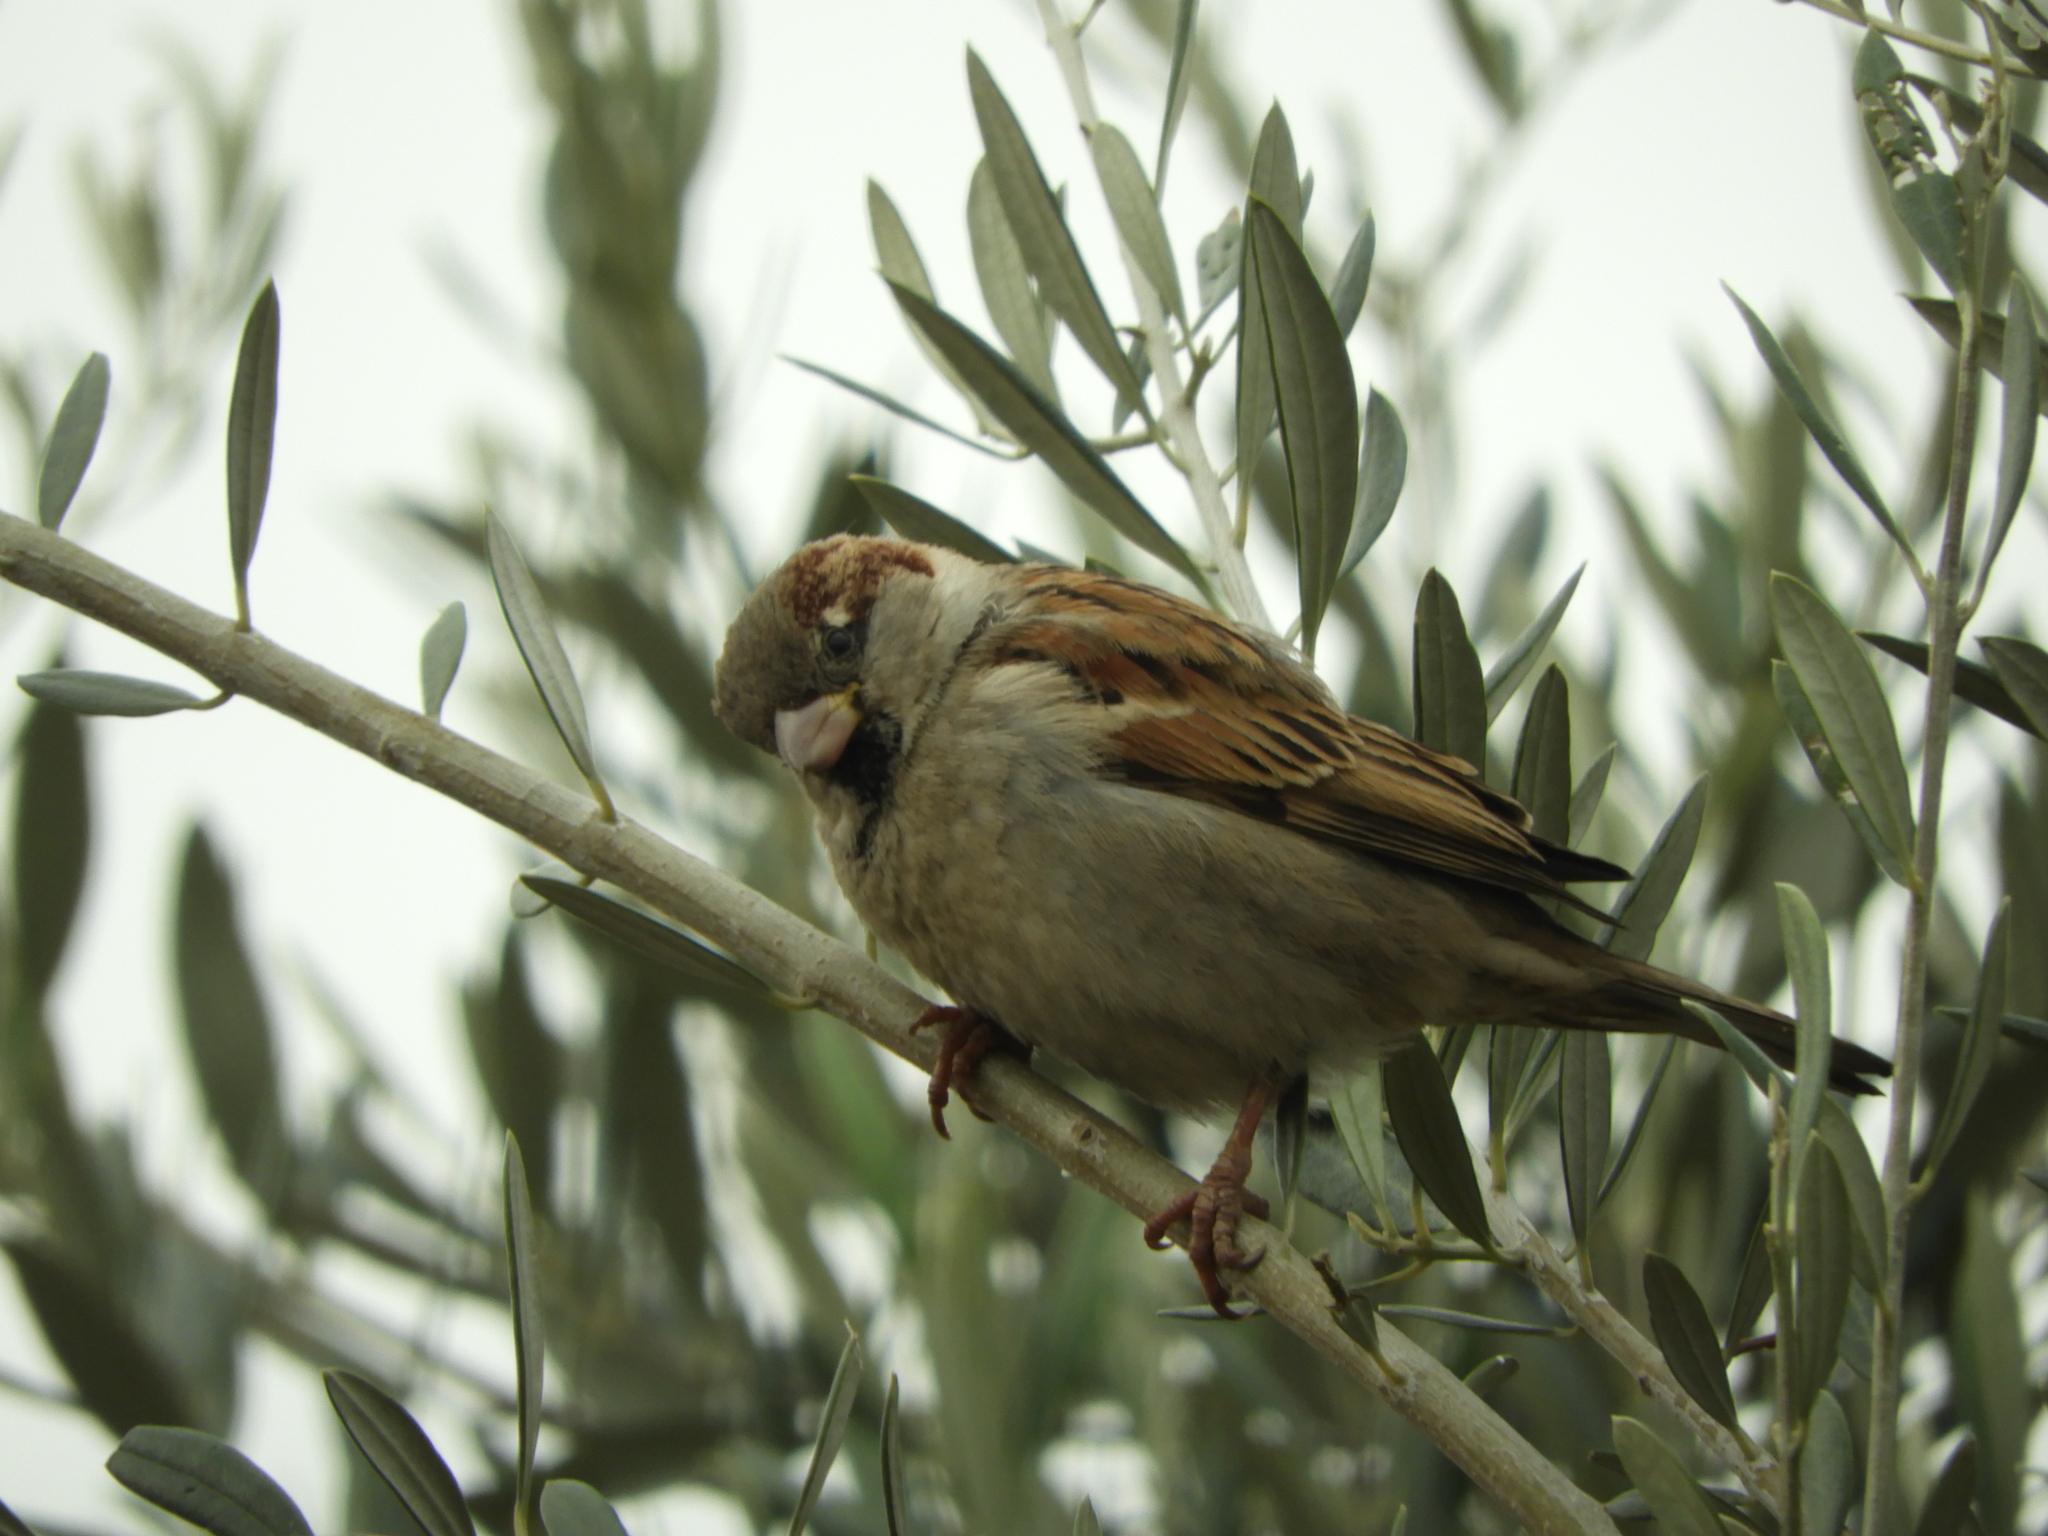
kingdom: Animalia
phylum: Chordata
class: Aves
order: Passeriformes
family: Passeridae
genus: Passer
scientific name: Passer domesticus
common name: House sparrow
